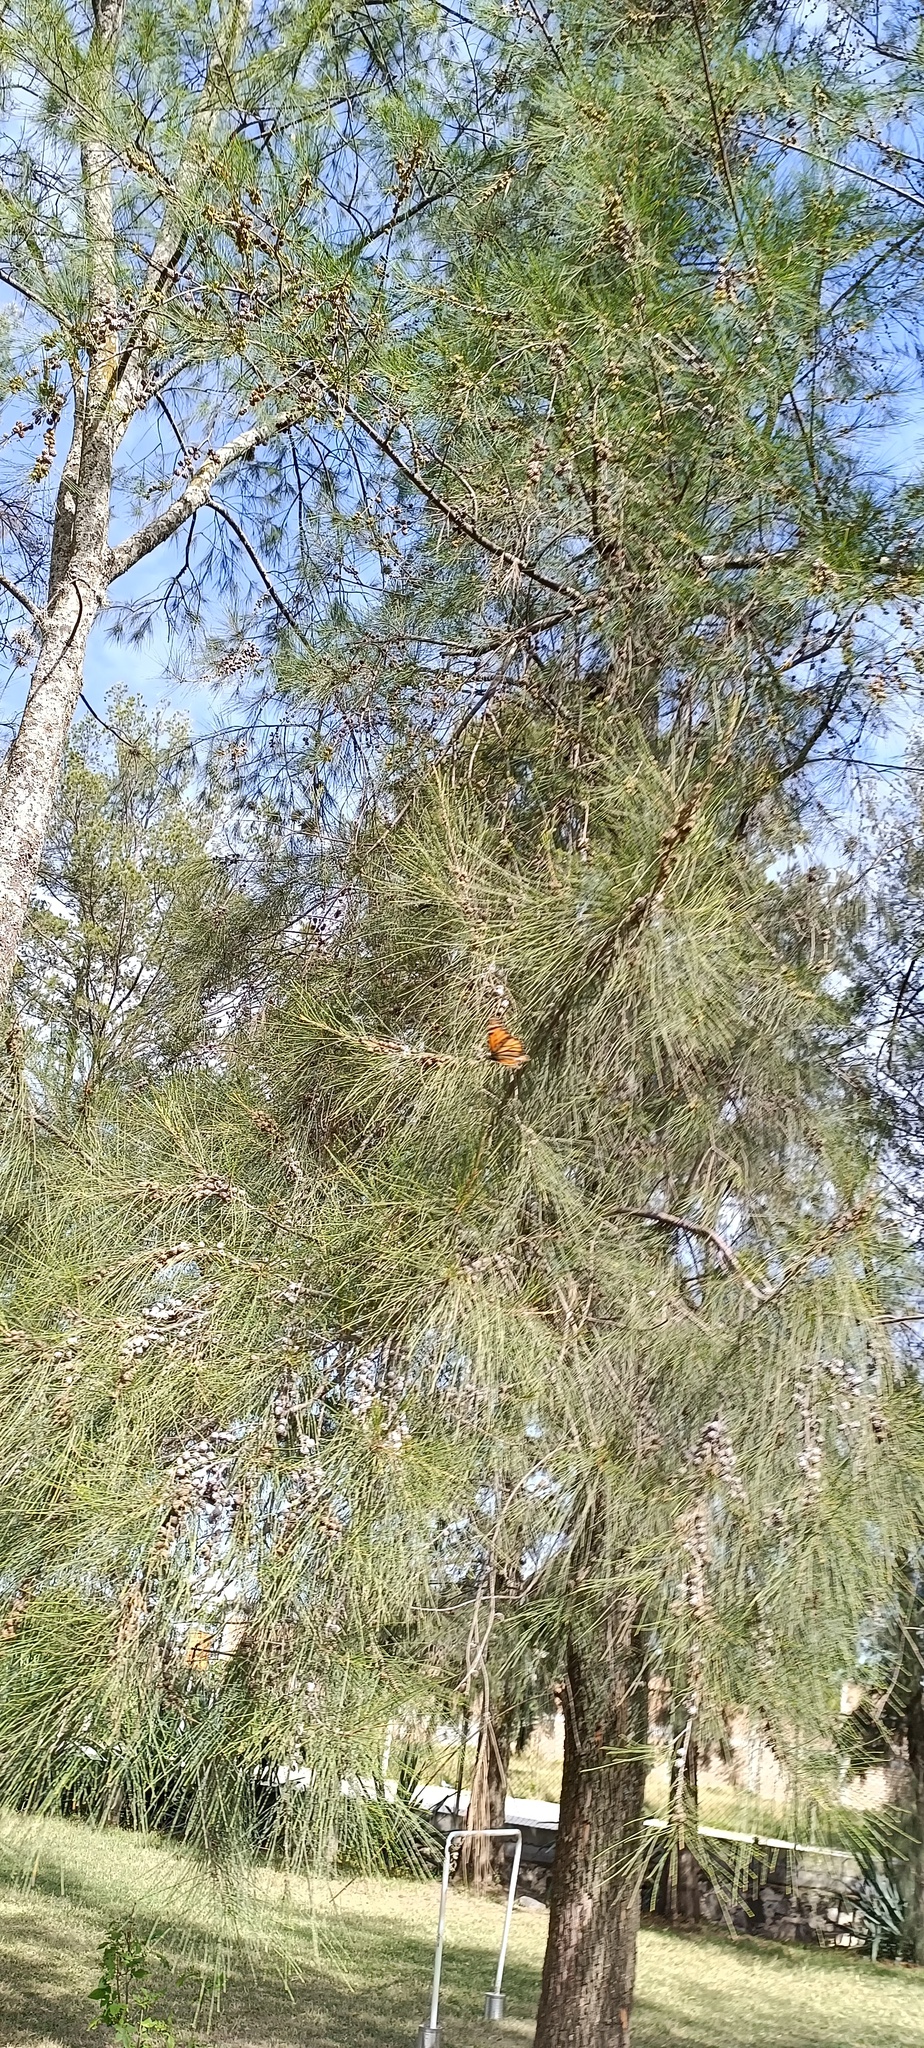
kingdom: Animalia
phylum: Arthropoda
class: Insecta
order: Lepidoptera
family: Nymphalidae
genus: Danaus
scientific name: Danaus plexippus
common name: Monarch
